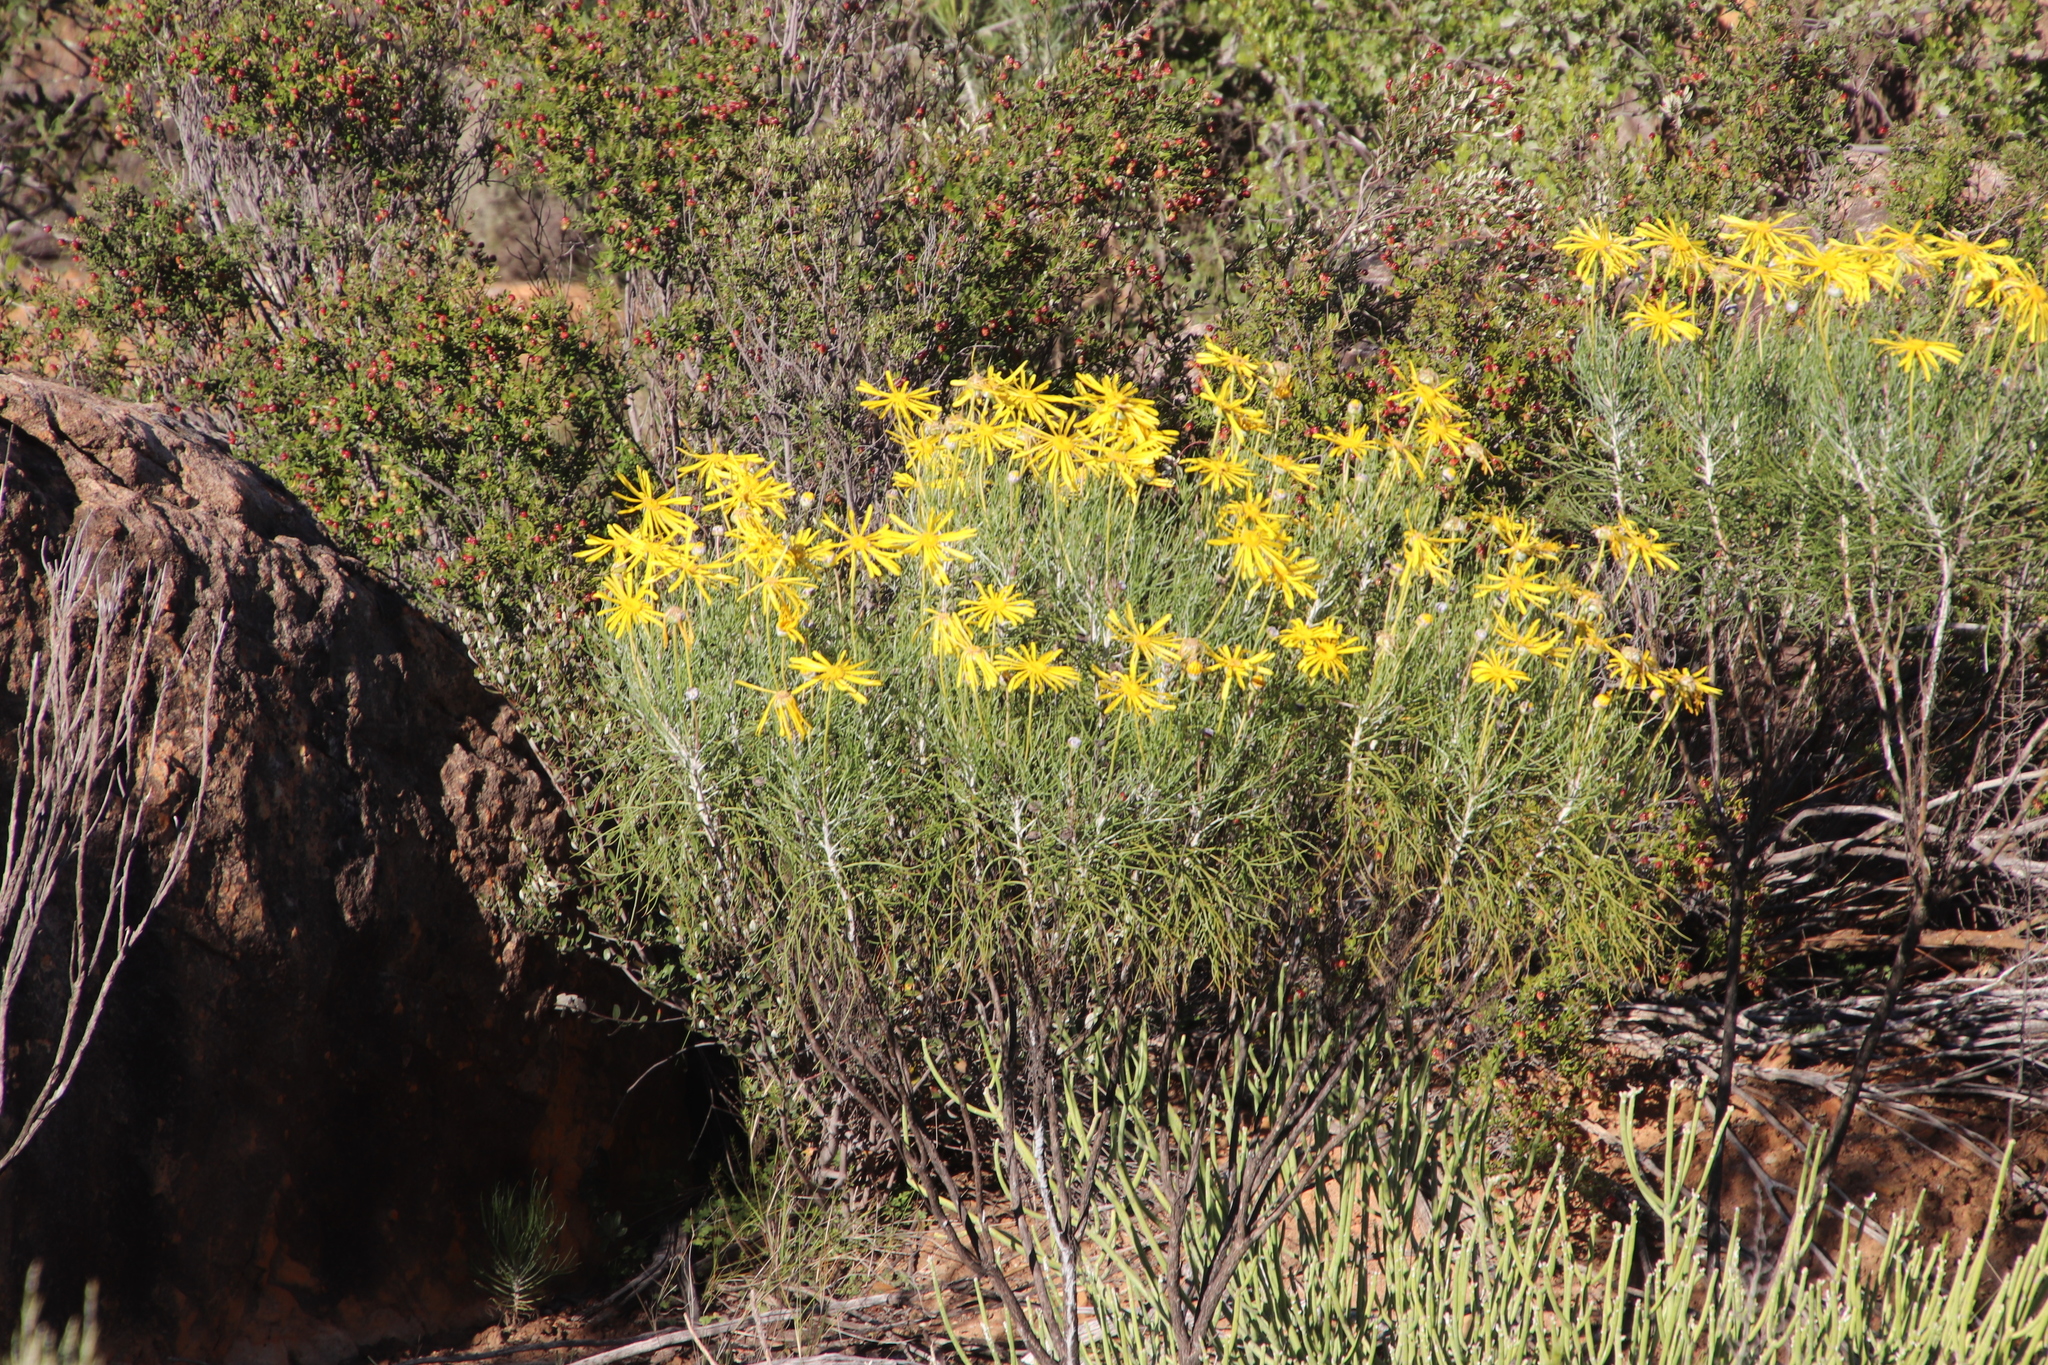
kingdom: Plantae
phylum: Tracheophyta
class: Magnoliopsida
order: Asterales
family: Asteraceae
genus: Euryops
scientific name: Euryops speciosissimus
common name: Clanwilliam daisy
